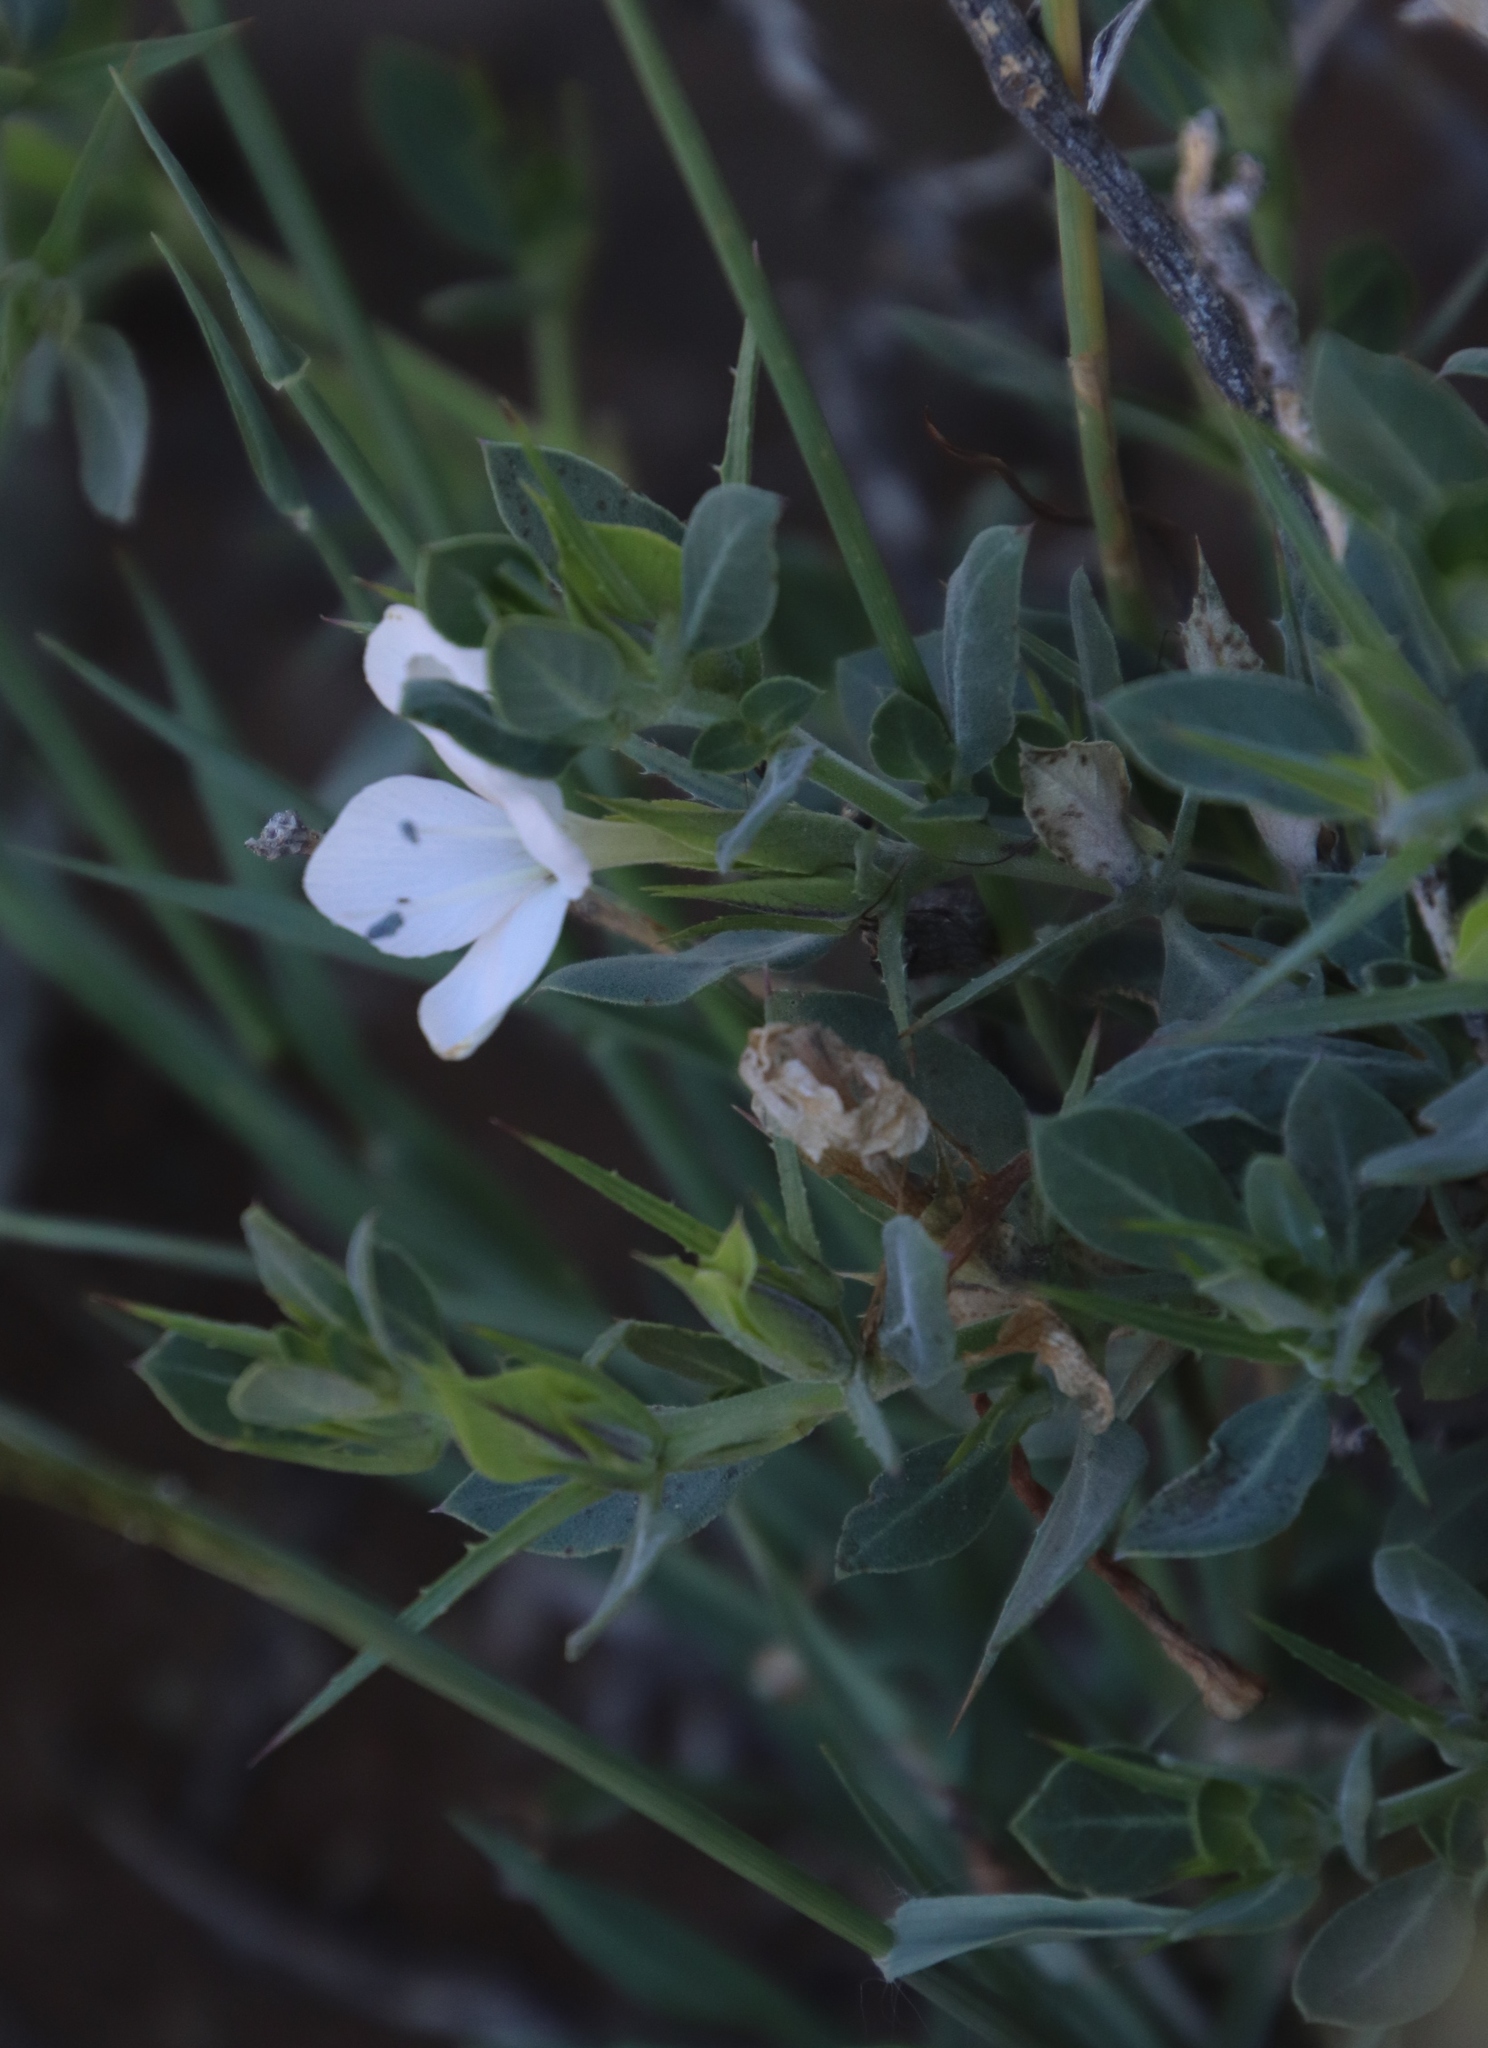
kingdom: Plantae
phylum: Tracheophyta
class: Magnoliopsida
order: Lamiales
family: Acanthaceae
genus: Barleria
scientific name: Barleria stimulans
